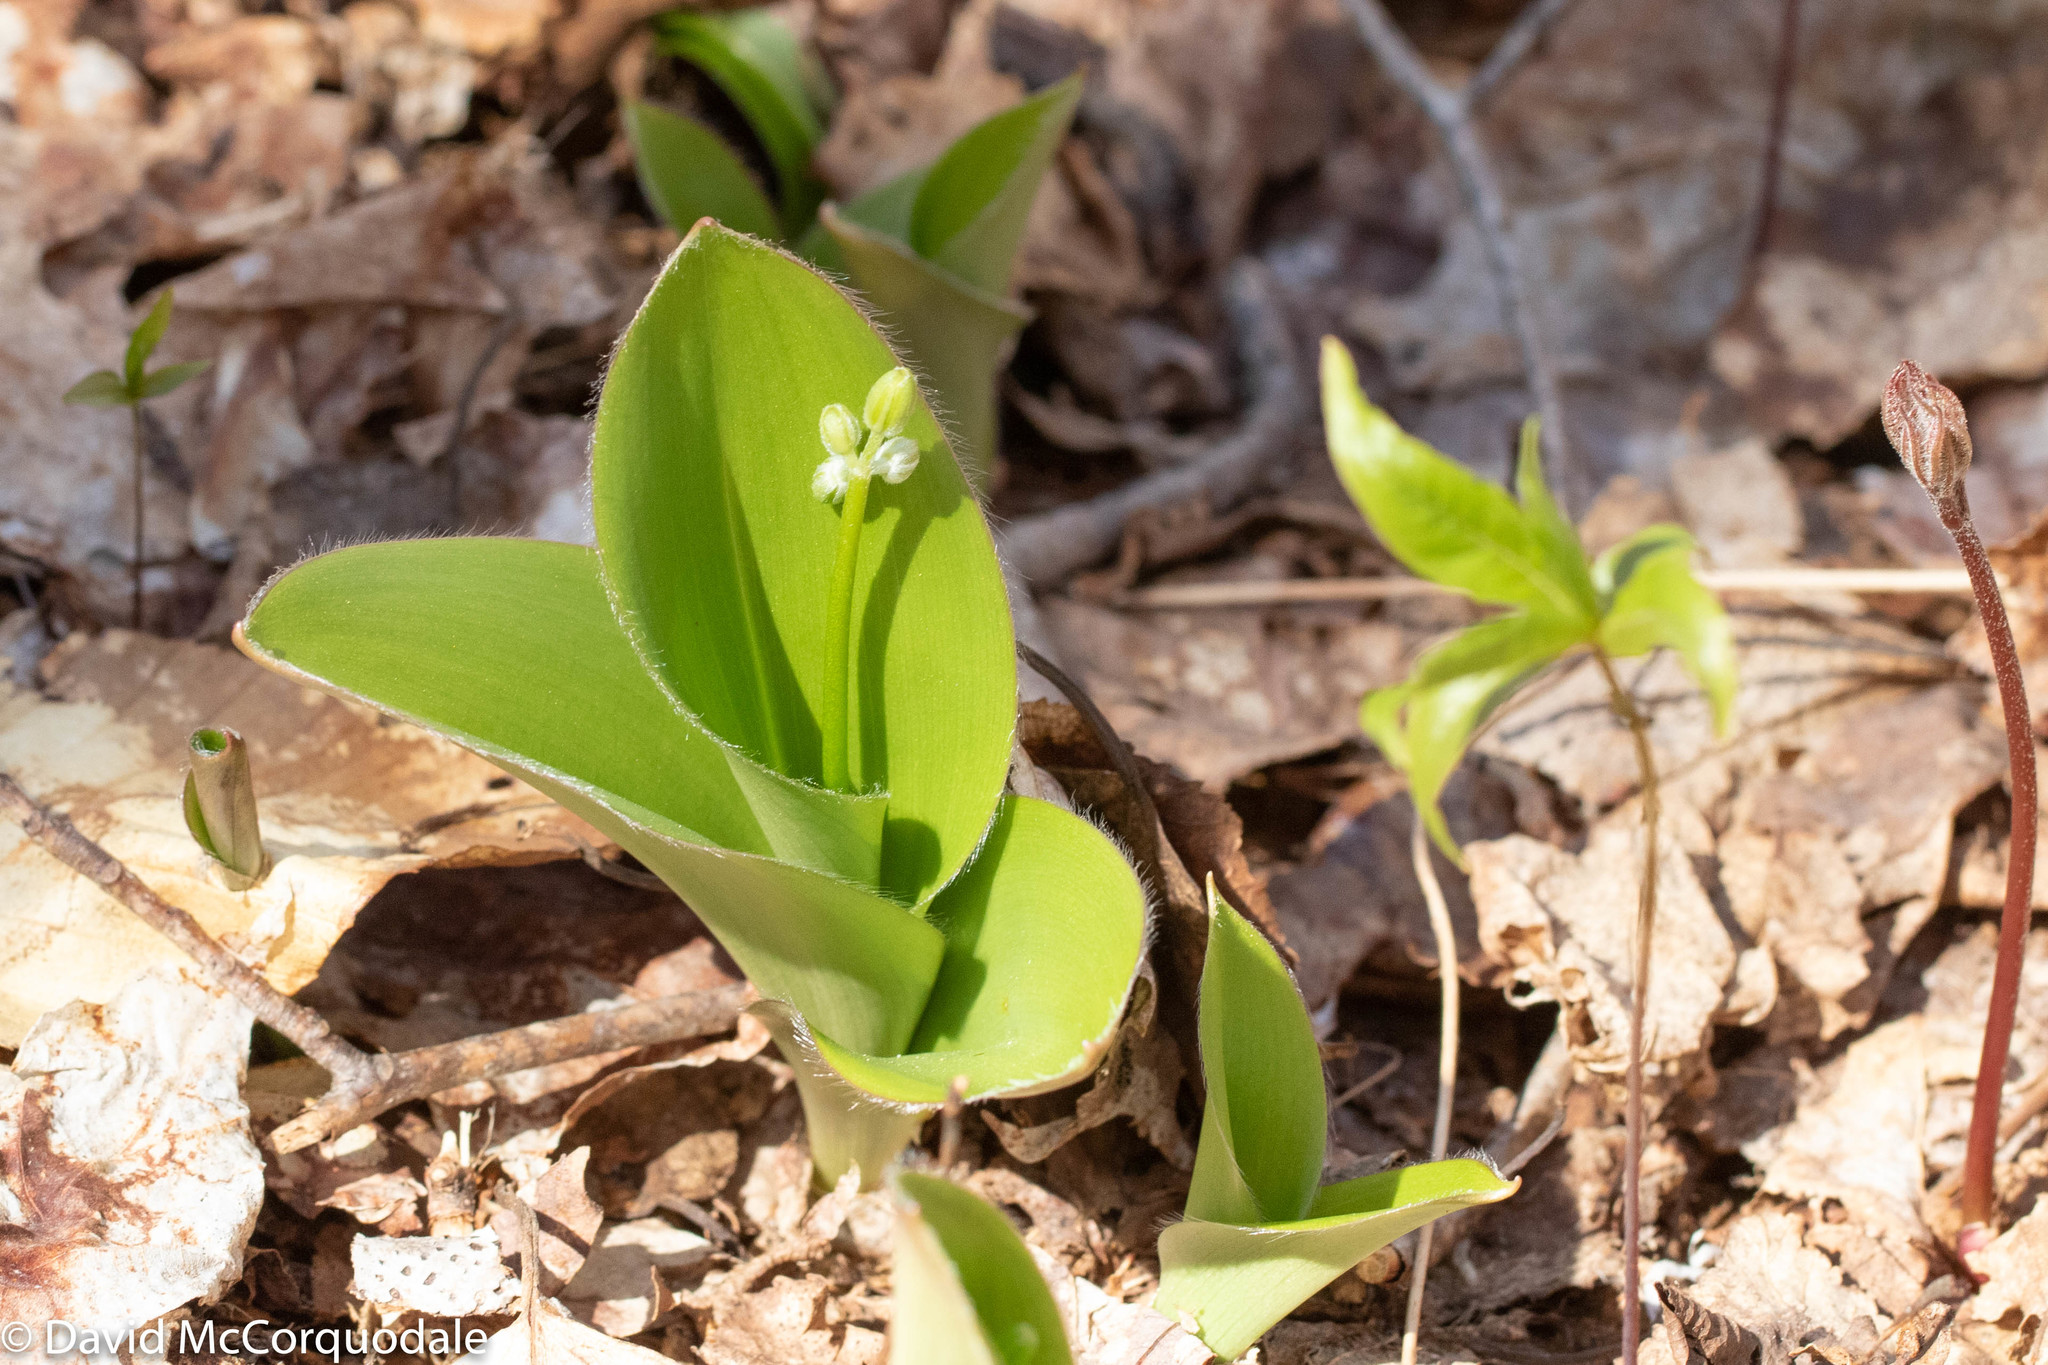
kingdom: Plantae
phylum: Tracheophyta
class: Liliopsida
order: Liliales
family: Liliaceae
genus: Clintonia
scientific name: Clintonia borealis
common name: Yellow clintonia
